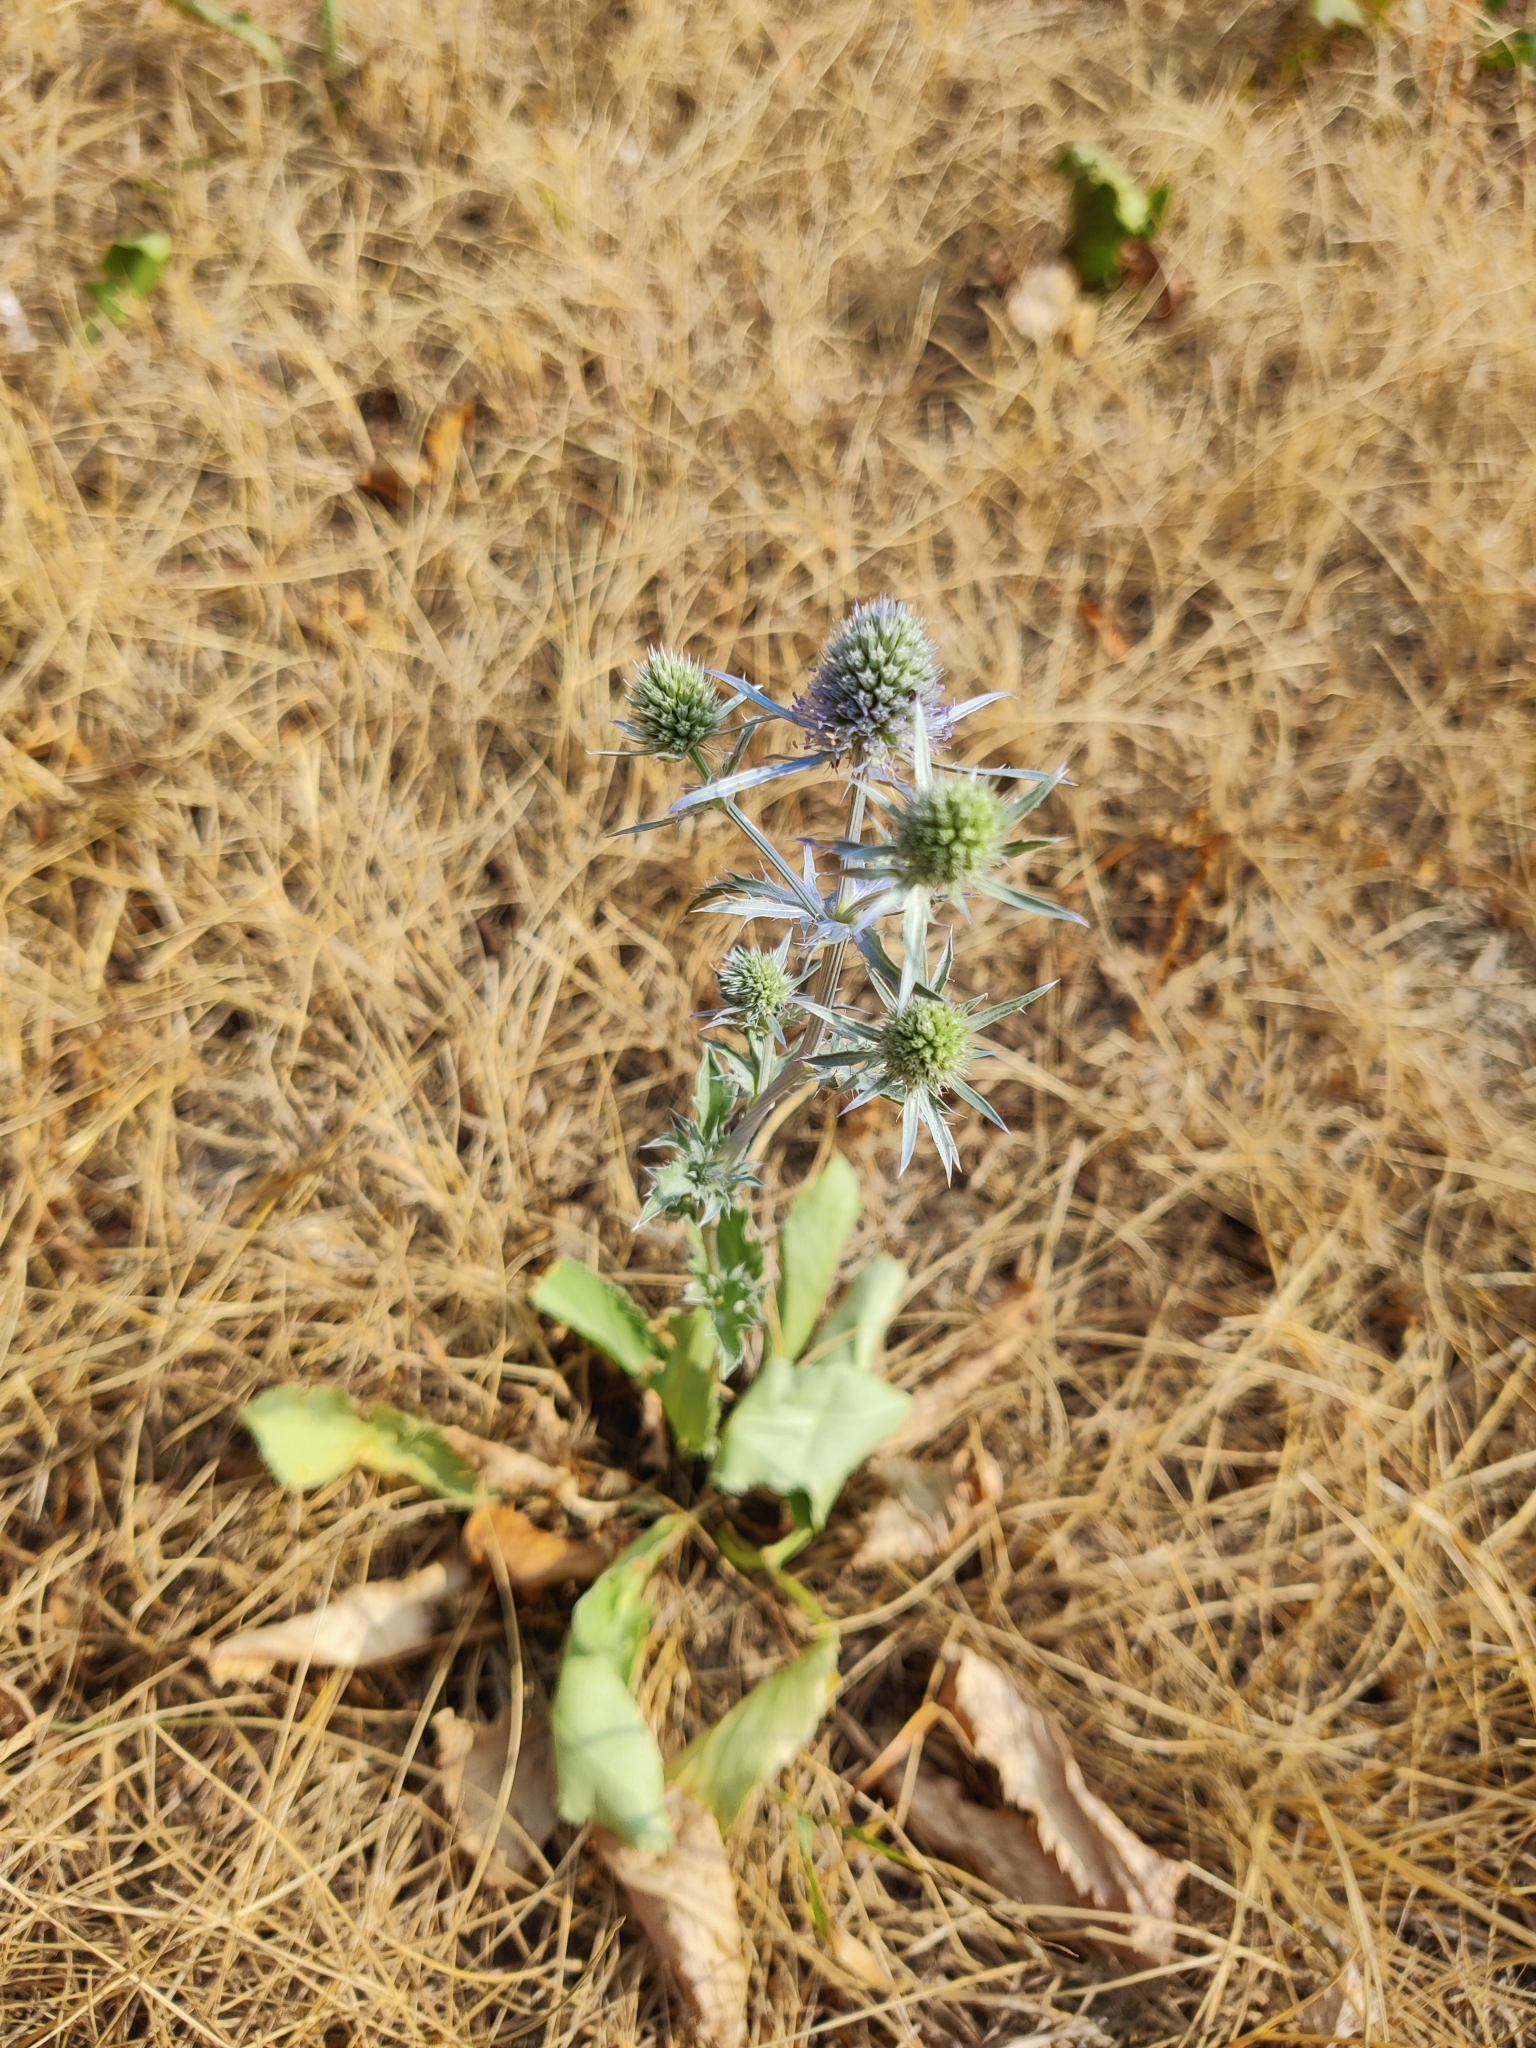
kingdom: Plantae
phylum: Tracheophyta
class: Magnoliopsida
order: Apiales
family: Apiaceae
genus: Eryngium
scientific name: Eryngium planum
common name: Blue eryngo
